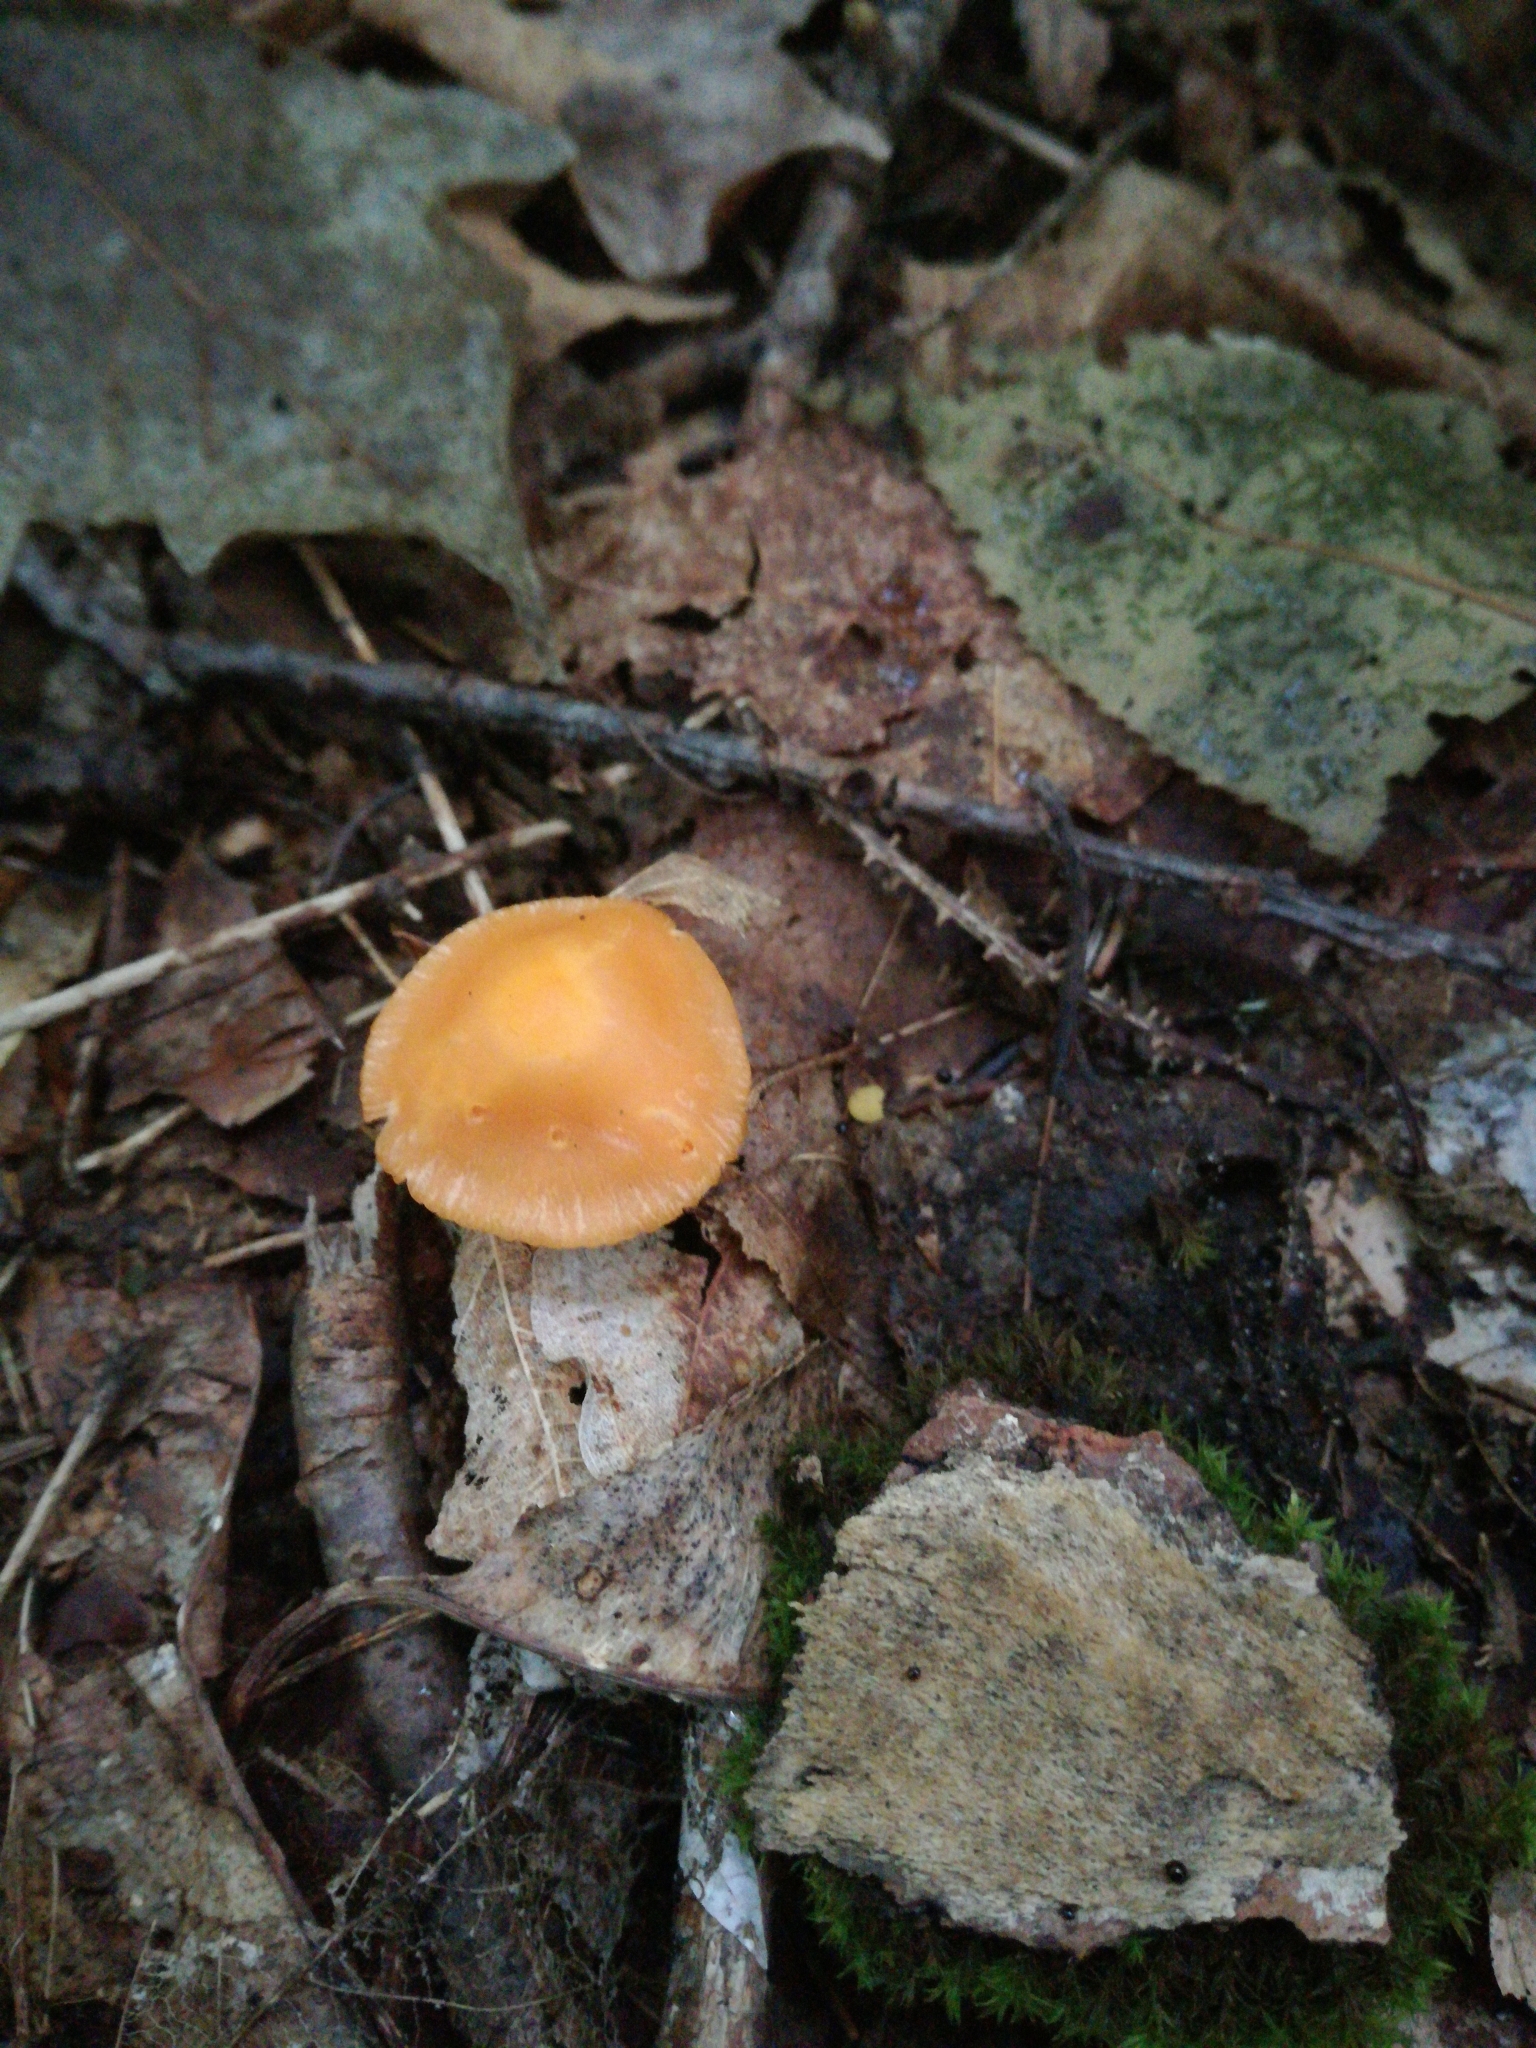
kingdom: Fungi
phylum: Basidiomycota
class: Agaricomycetes
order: Agaricales
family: Hygrophoraceae
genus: Humidicutis
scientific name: Humidicutis marginata
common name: Orange gilled waxcap
